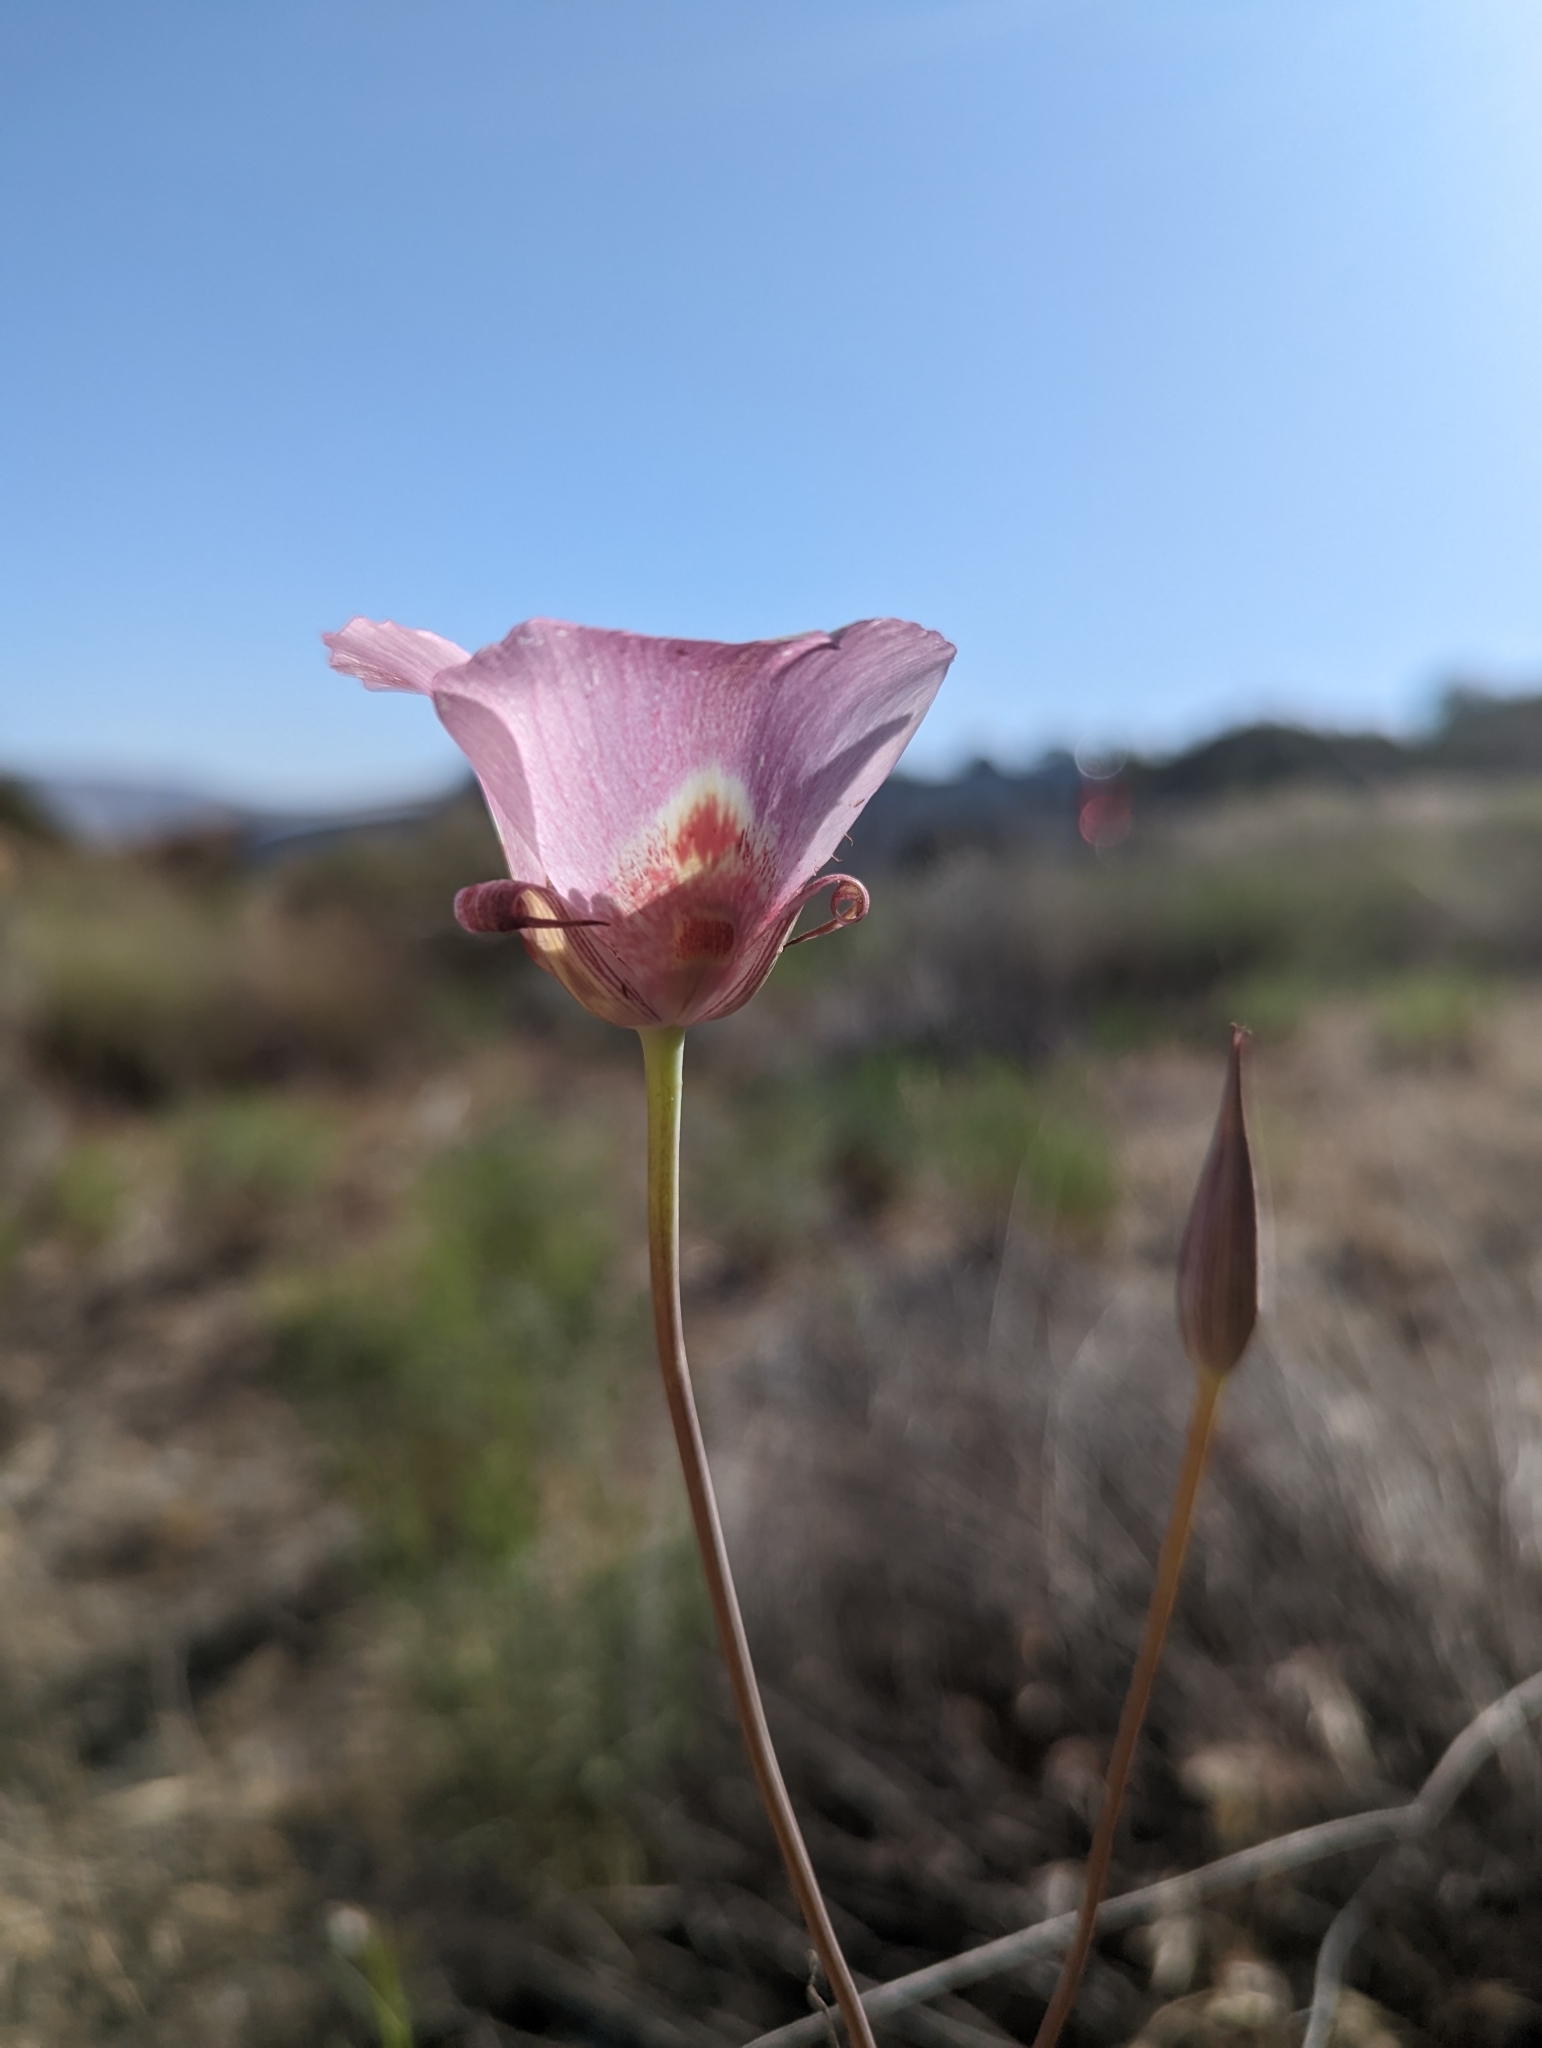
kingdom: Plantae
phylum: Tracheophyta
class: Liliopsida
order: Liliales
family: Liliaceae
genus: Calochortus
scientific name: Calochortus venustus
